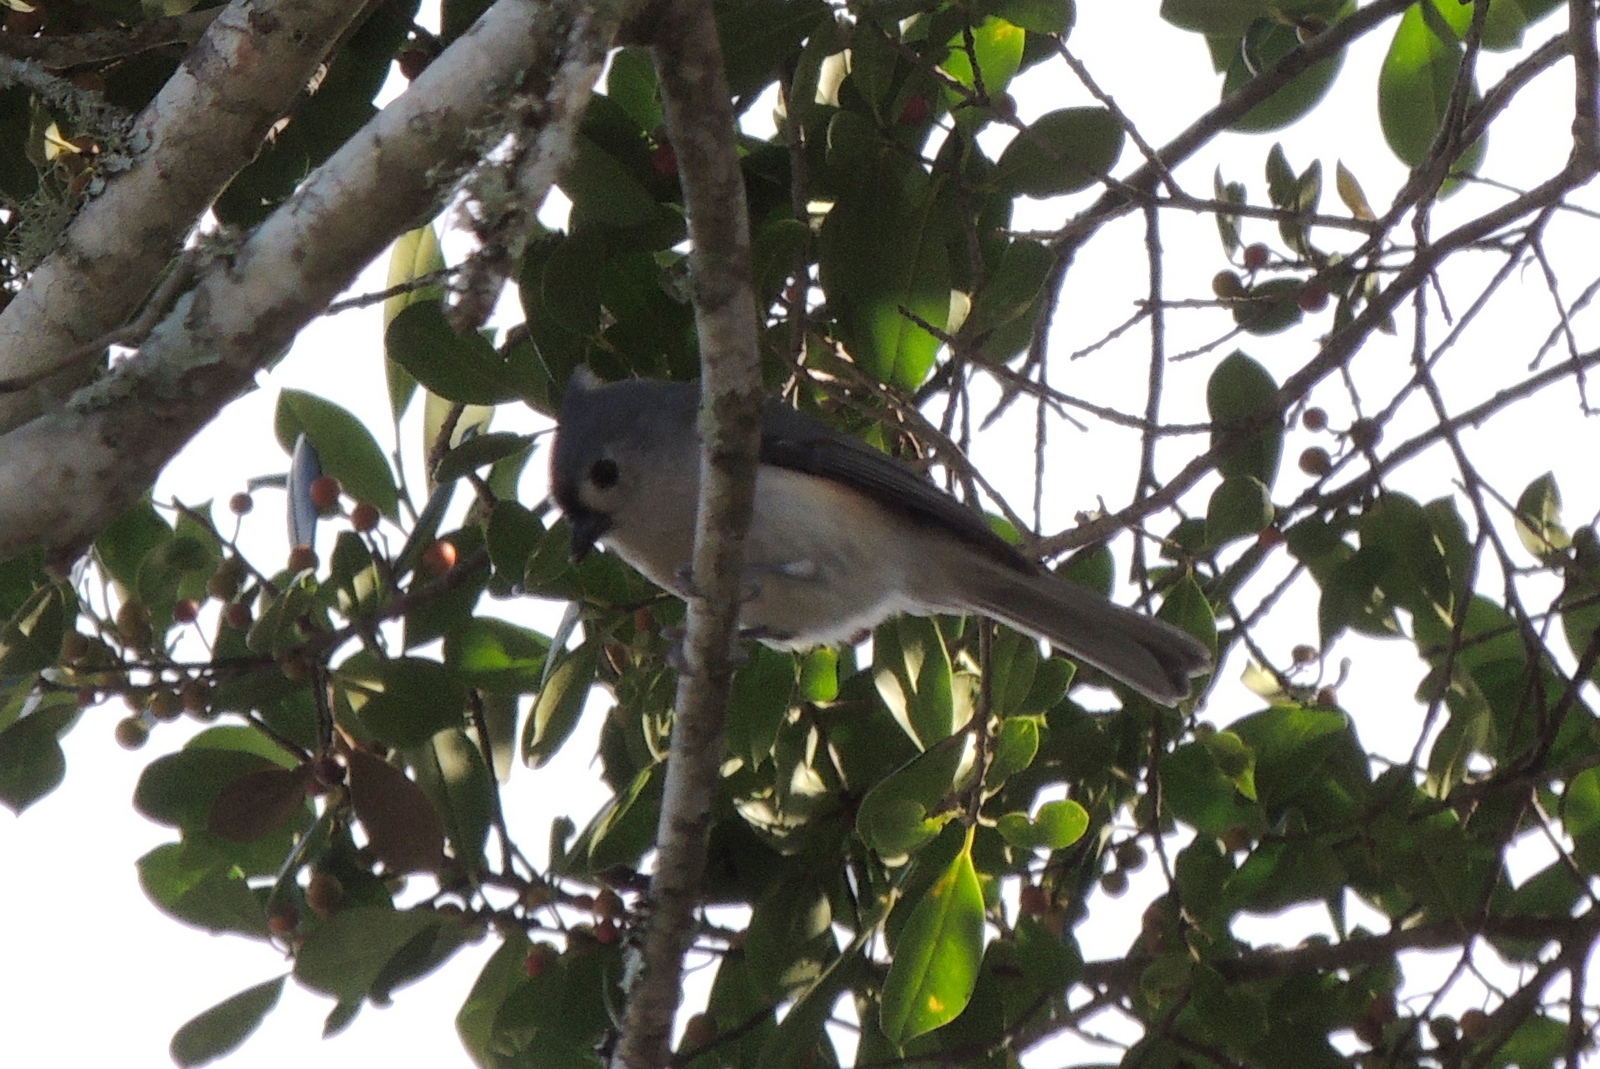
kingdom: Animalia
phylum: Chordata
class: Aves
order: Passeriformes
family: Paridae
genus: Baeolophus
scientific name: Baeolophus bicolor
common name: Tufted titmouse
